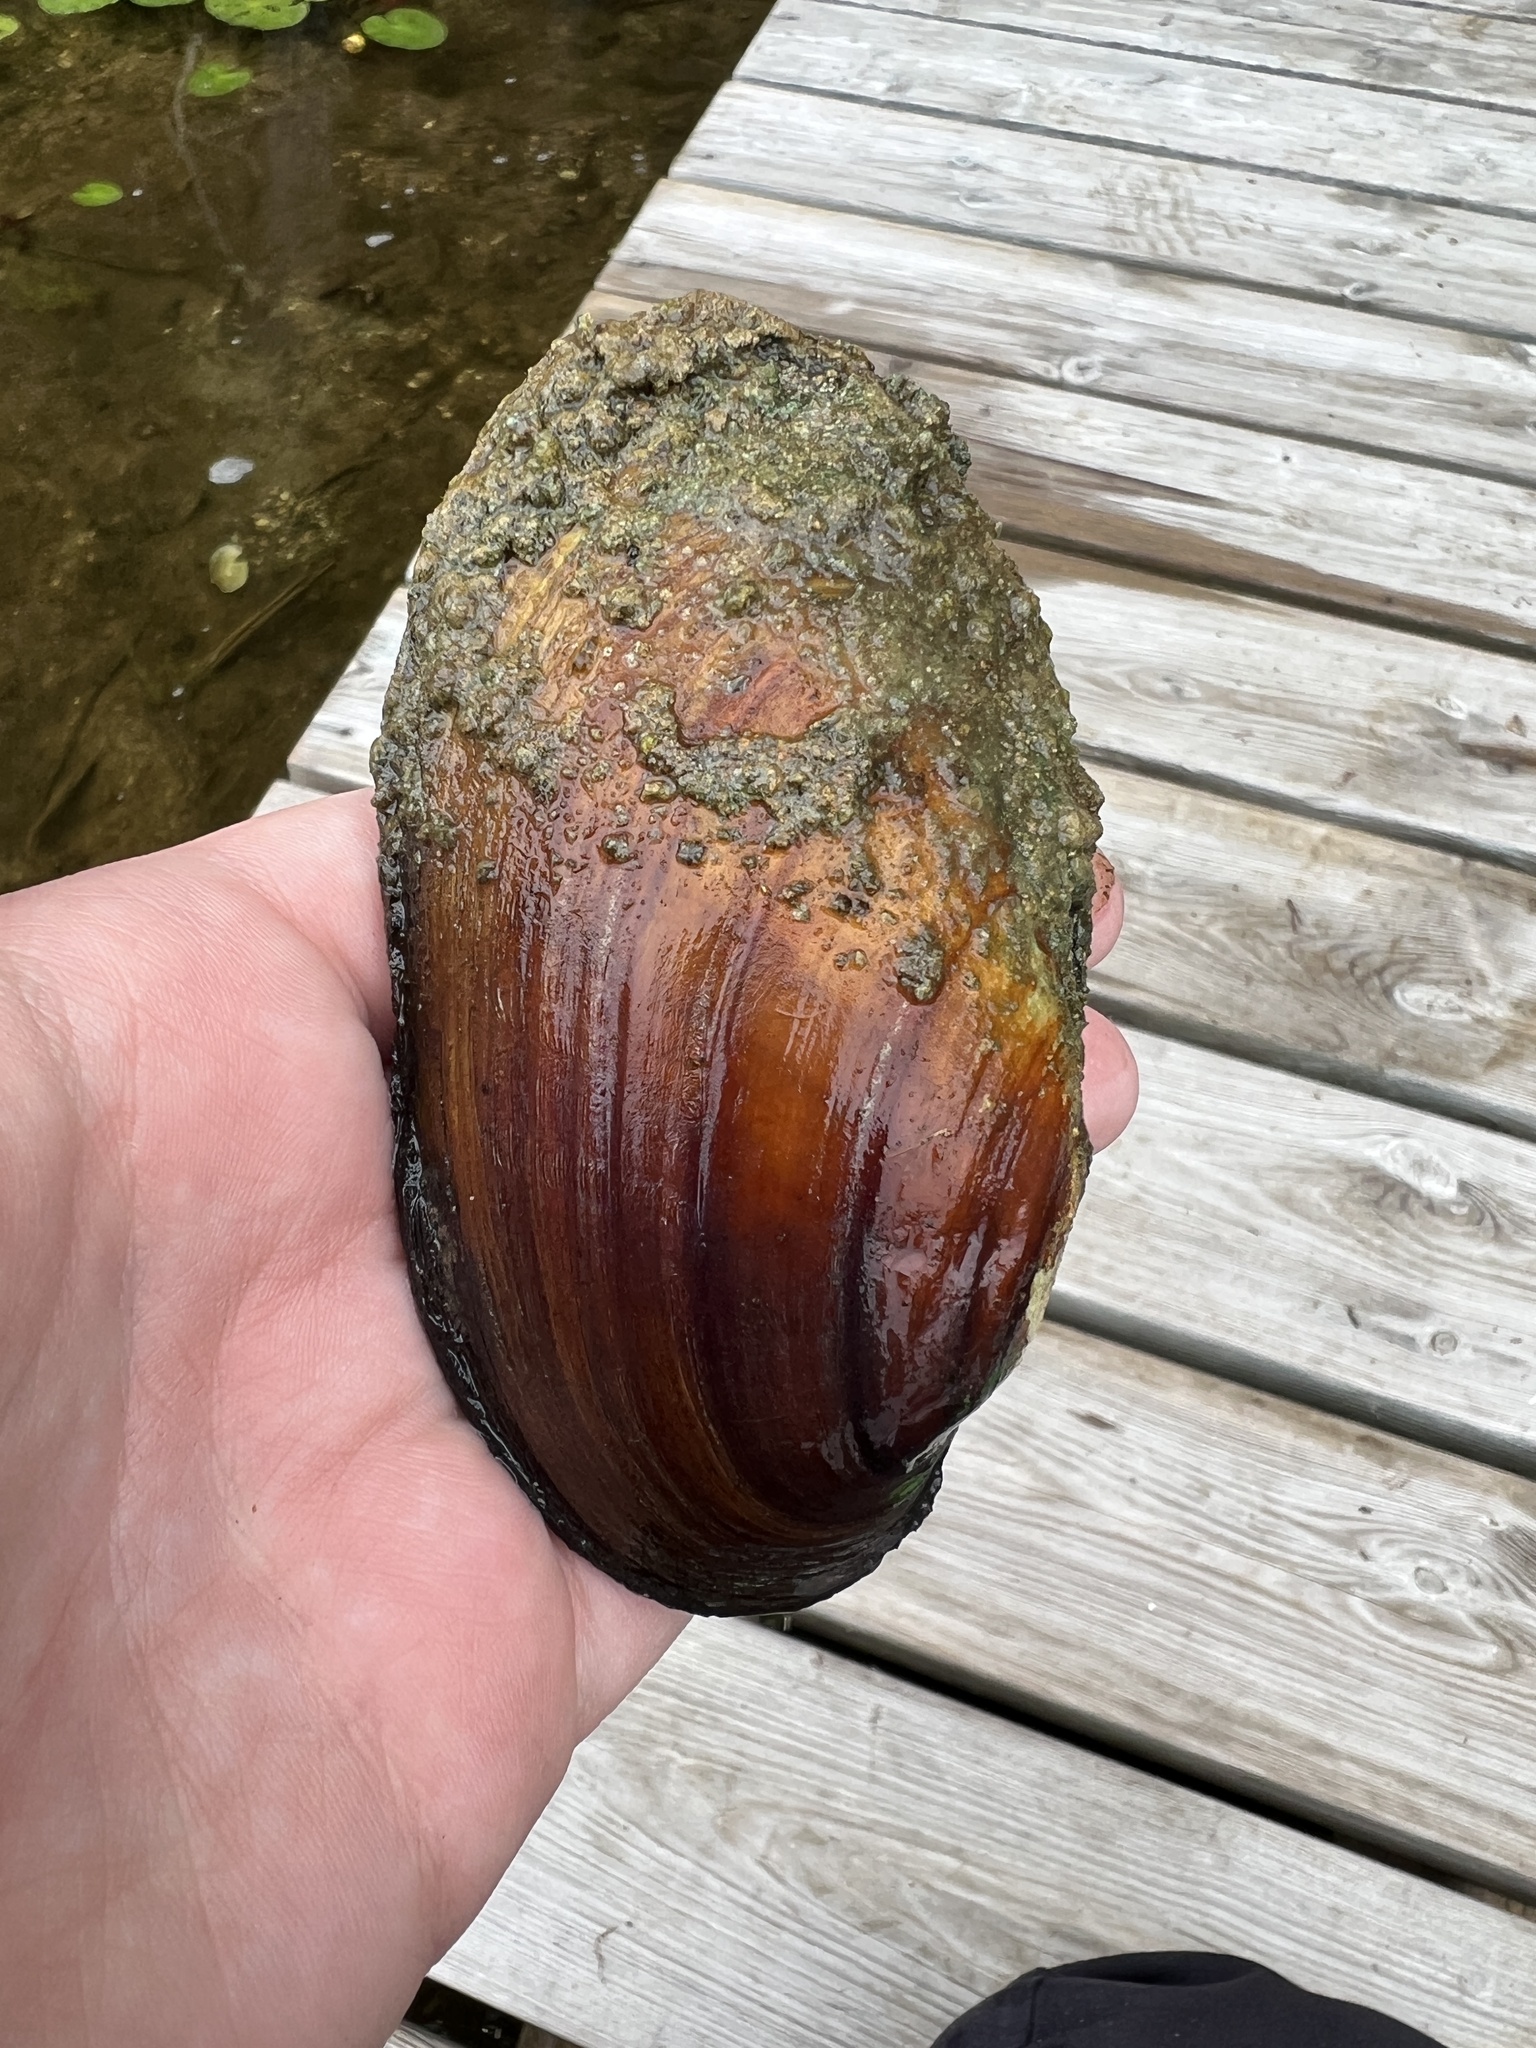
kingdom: Animalia
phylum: Mollusca
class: Bivalvia
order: Unionida
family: Unionidae
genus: Lampsilis
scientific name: Lampsilis siliquoidea
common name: Fatmucket
